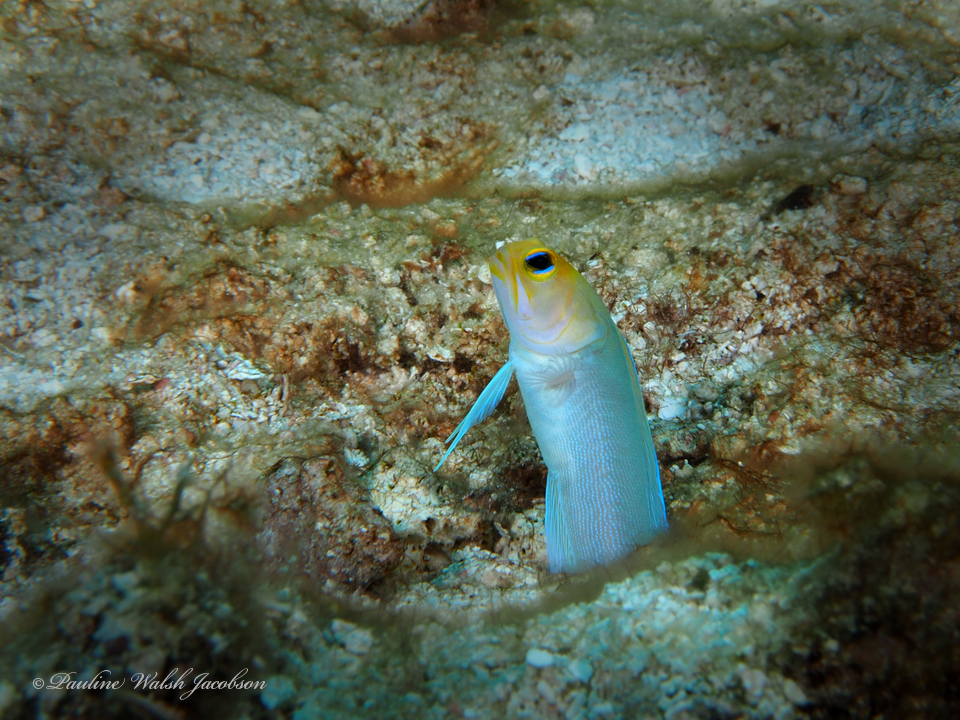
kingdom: Animalia
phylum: Chordata
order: Perciformes
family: Opistognathidae
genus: Opistognathus
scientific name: Opistognathus aurifrons
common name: Yellowhead jawfish
